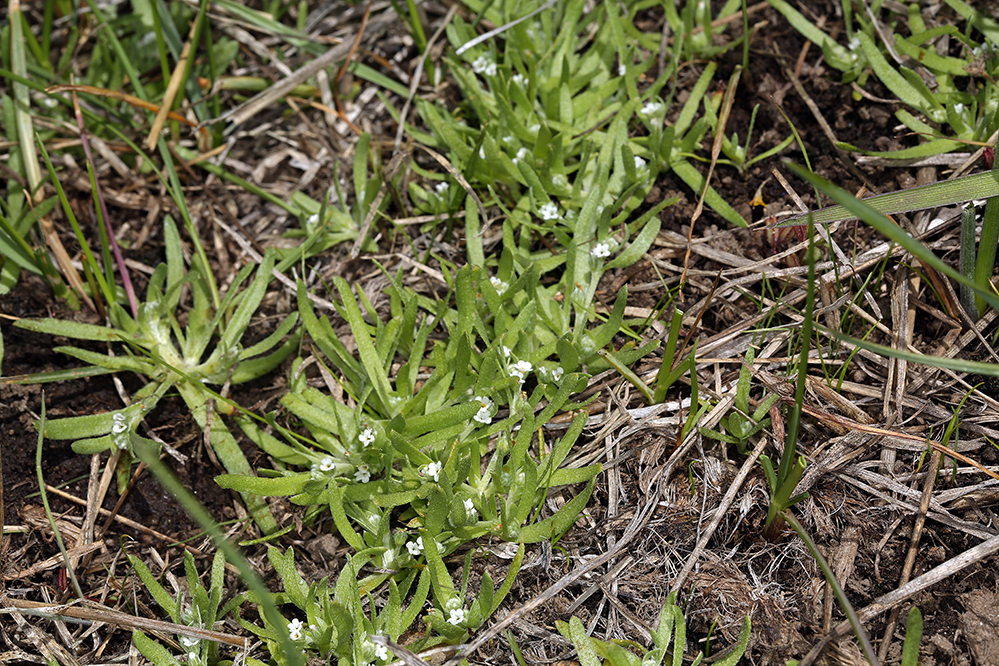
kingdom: Plantae
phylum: Tracheophyta
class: Magnoliopsida
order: Boraginales
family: Boraginaceae
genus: Plagiobothrys
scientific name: Plagiobothrys scouleri
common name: White forget-me-not
